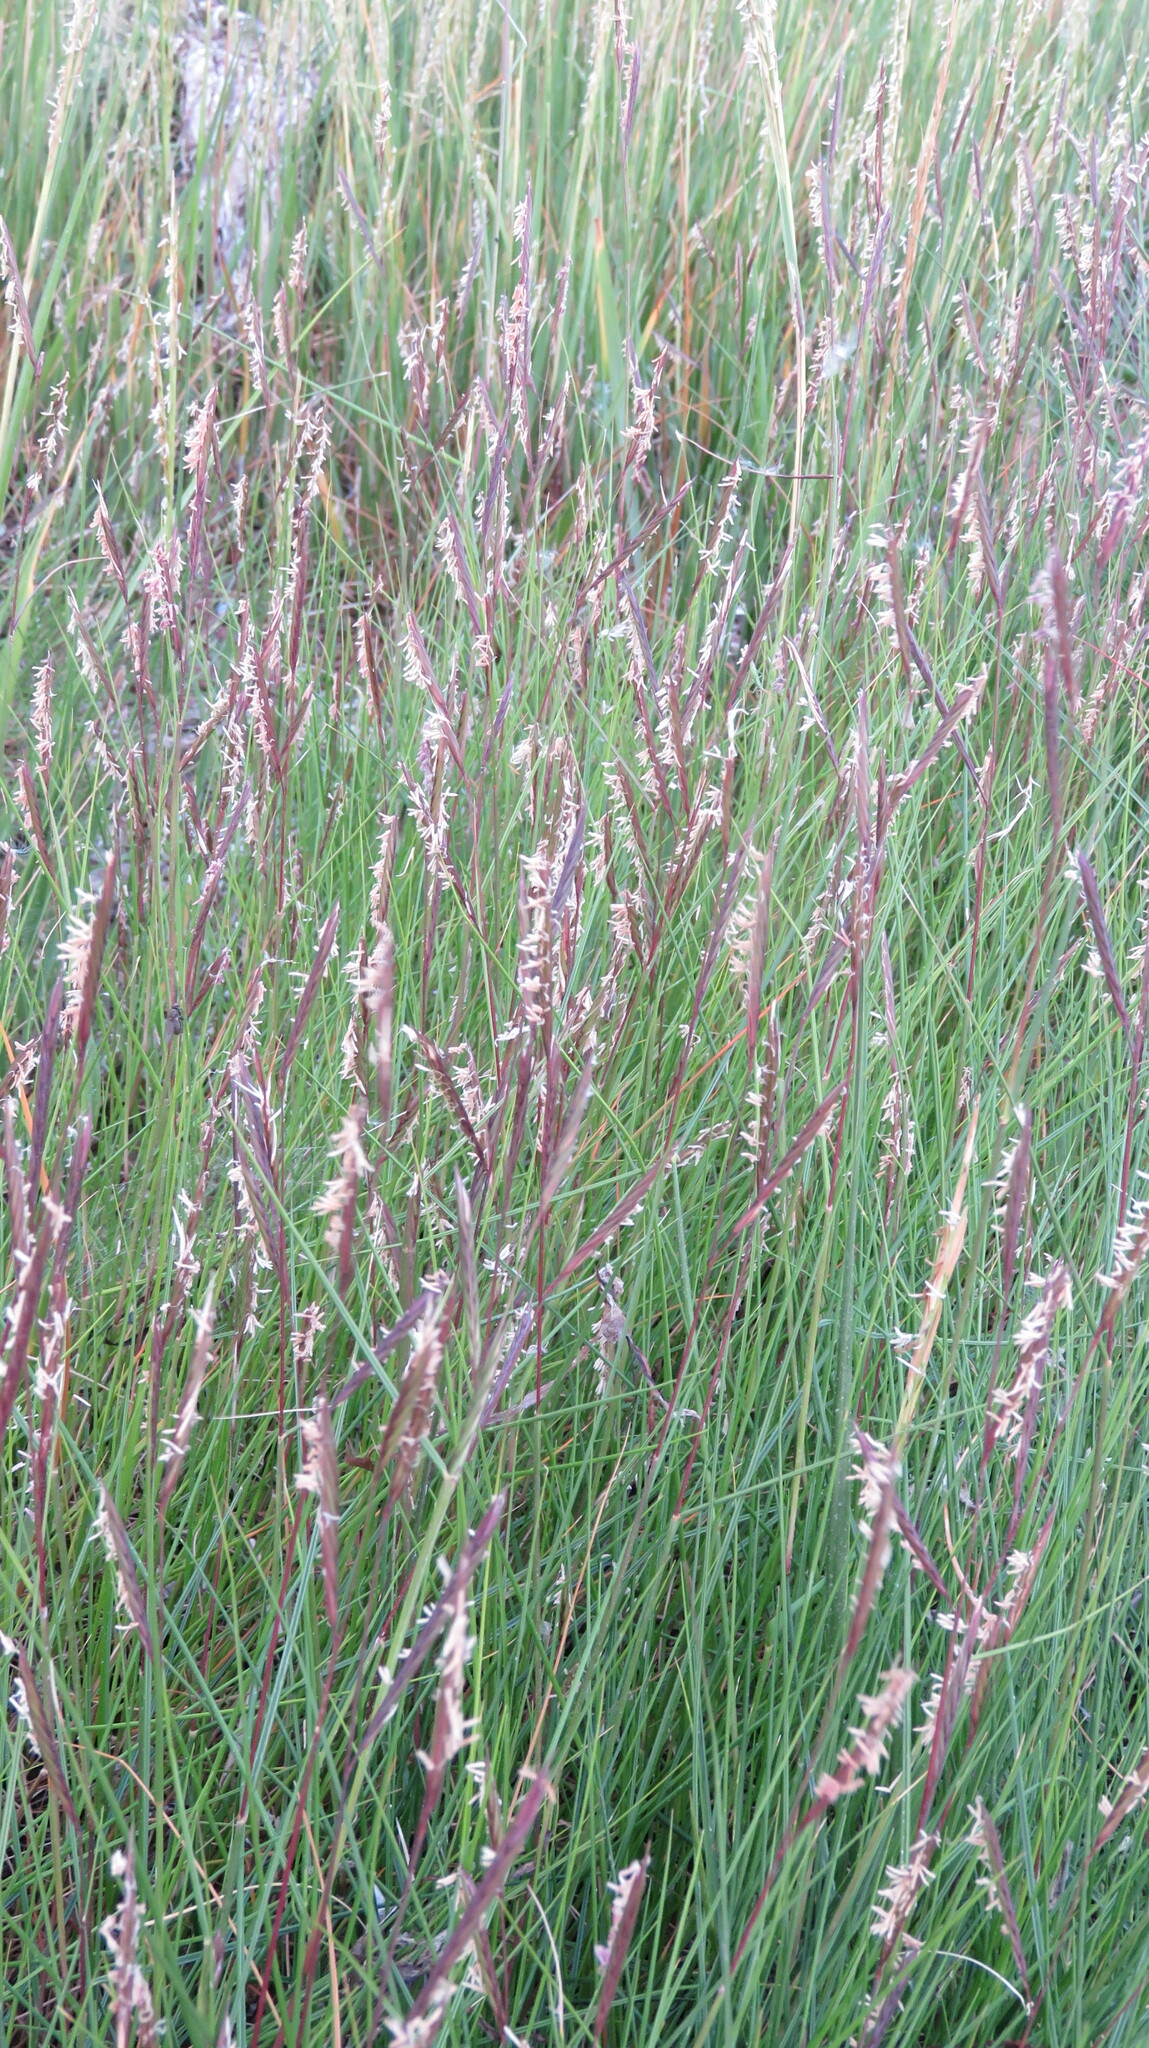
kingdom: Plantae
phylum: Tracheophyta
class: Liliopsida
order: Poales
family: Poaceae
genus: Sporobolus
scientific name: Sporobolus pumilus
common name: Highwater grass
